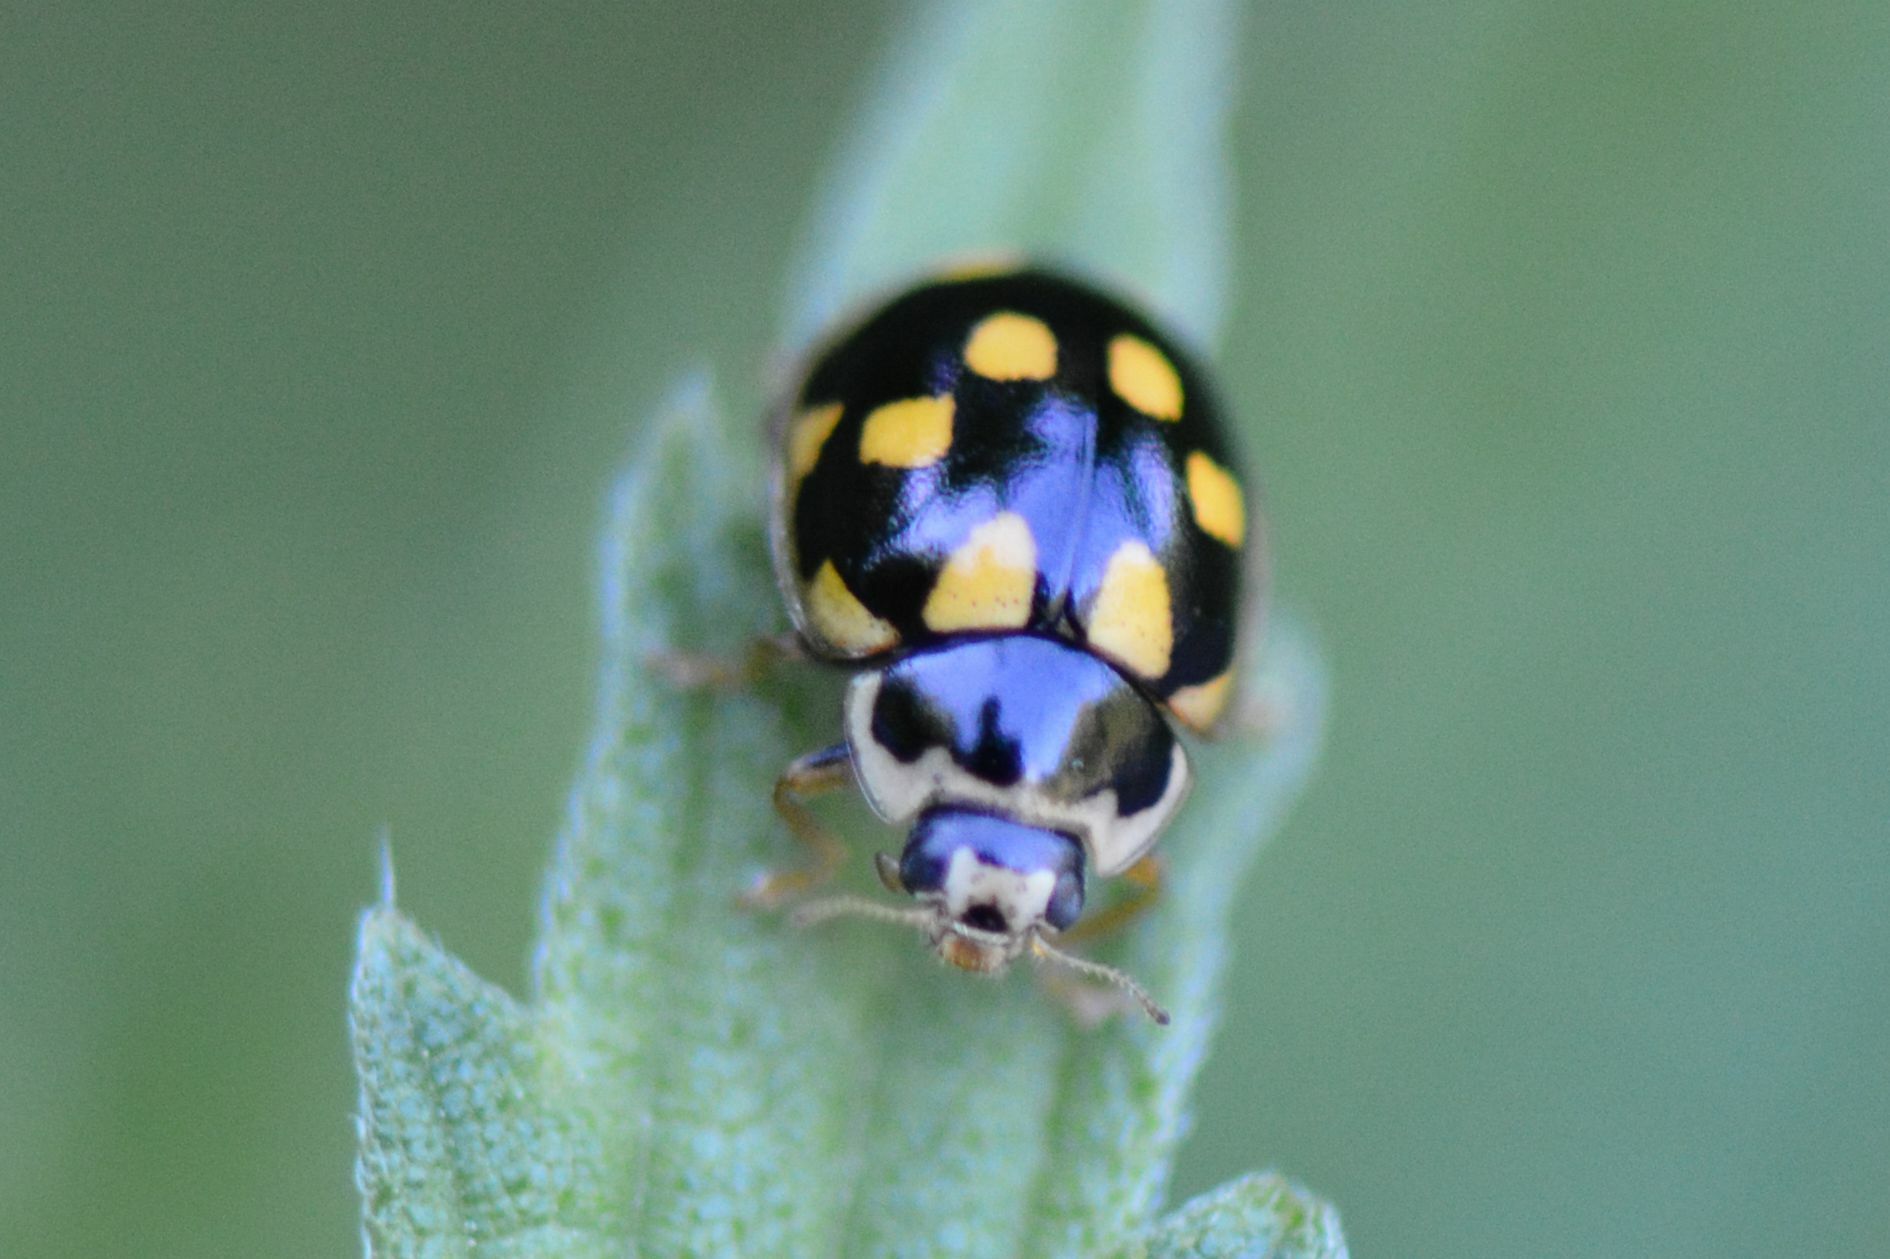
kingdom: Animalia
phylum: Arthropoda
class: Insecta
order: Coleoptera
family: Coccinellidae
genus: Propylaea
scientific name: Propylaea quatuordecimpunctata
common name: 14-spotted ladybird beetle
